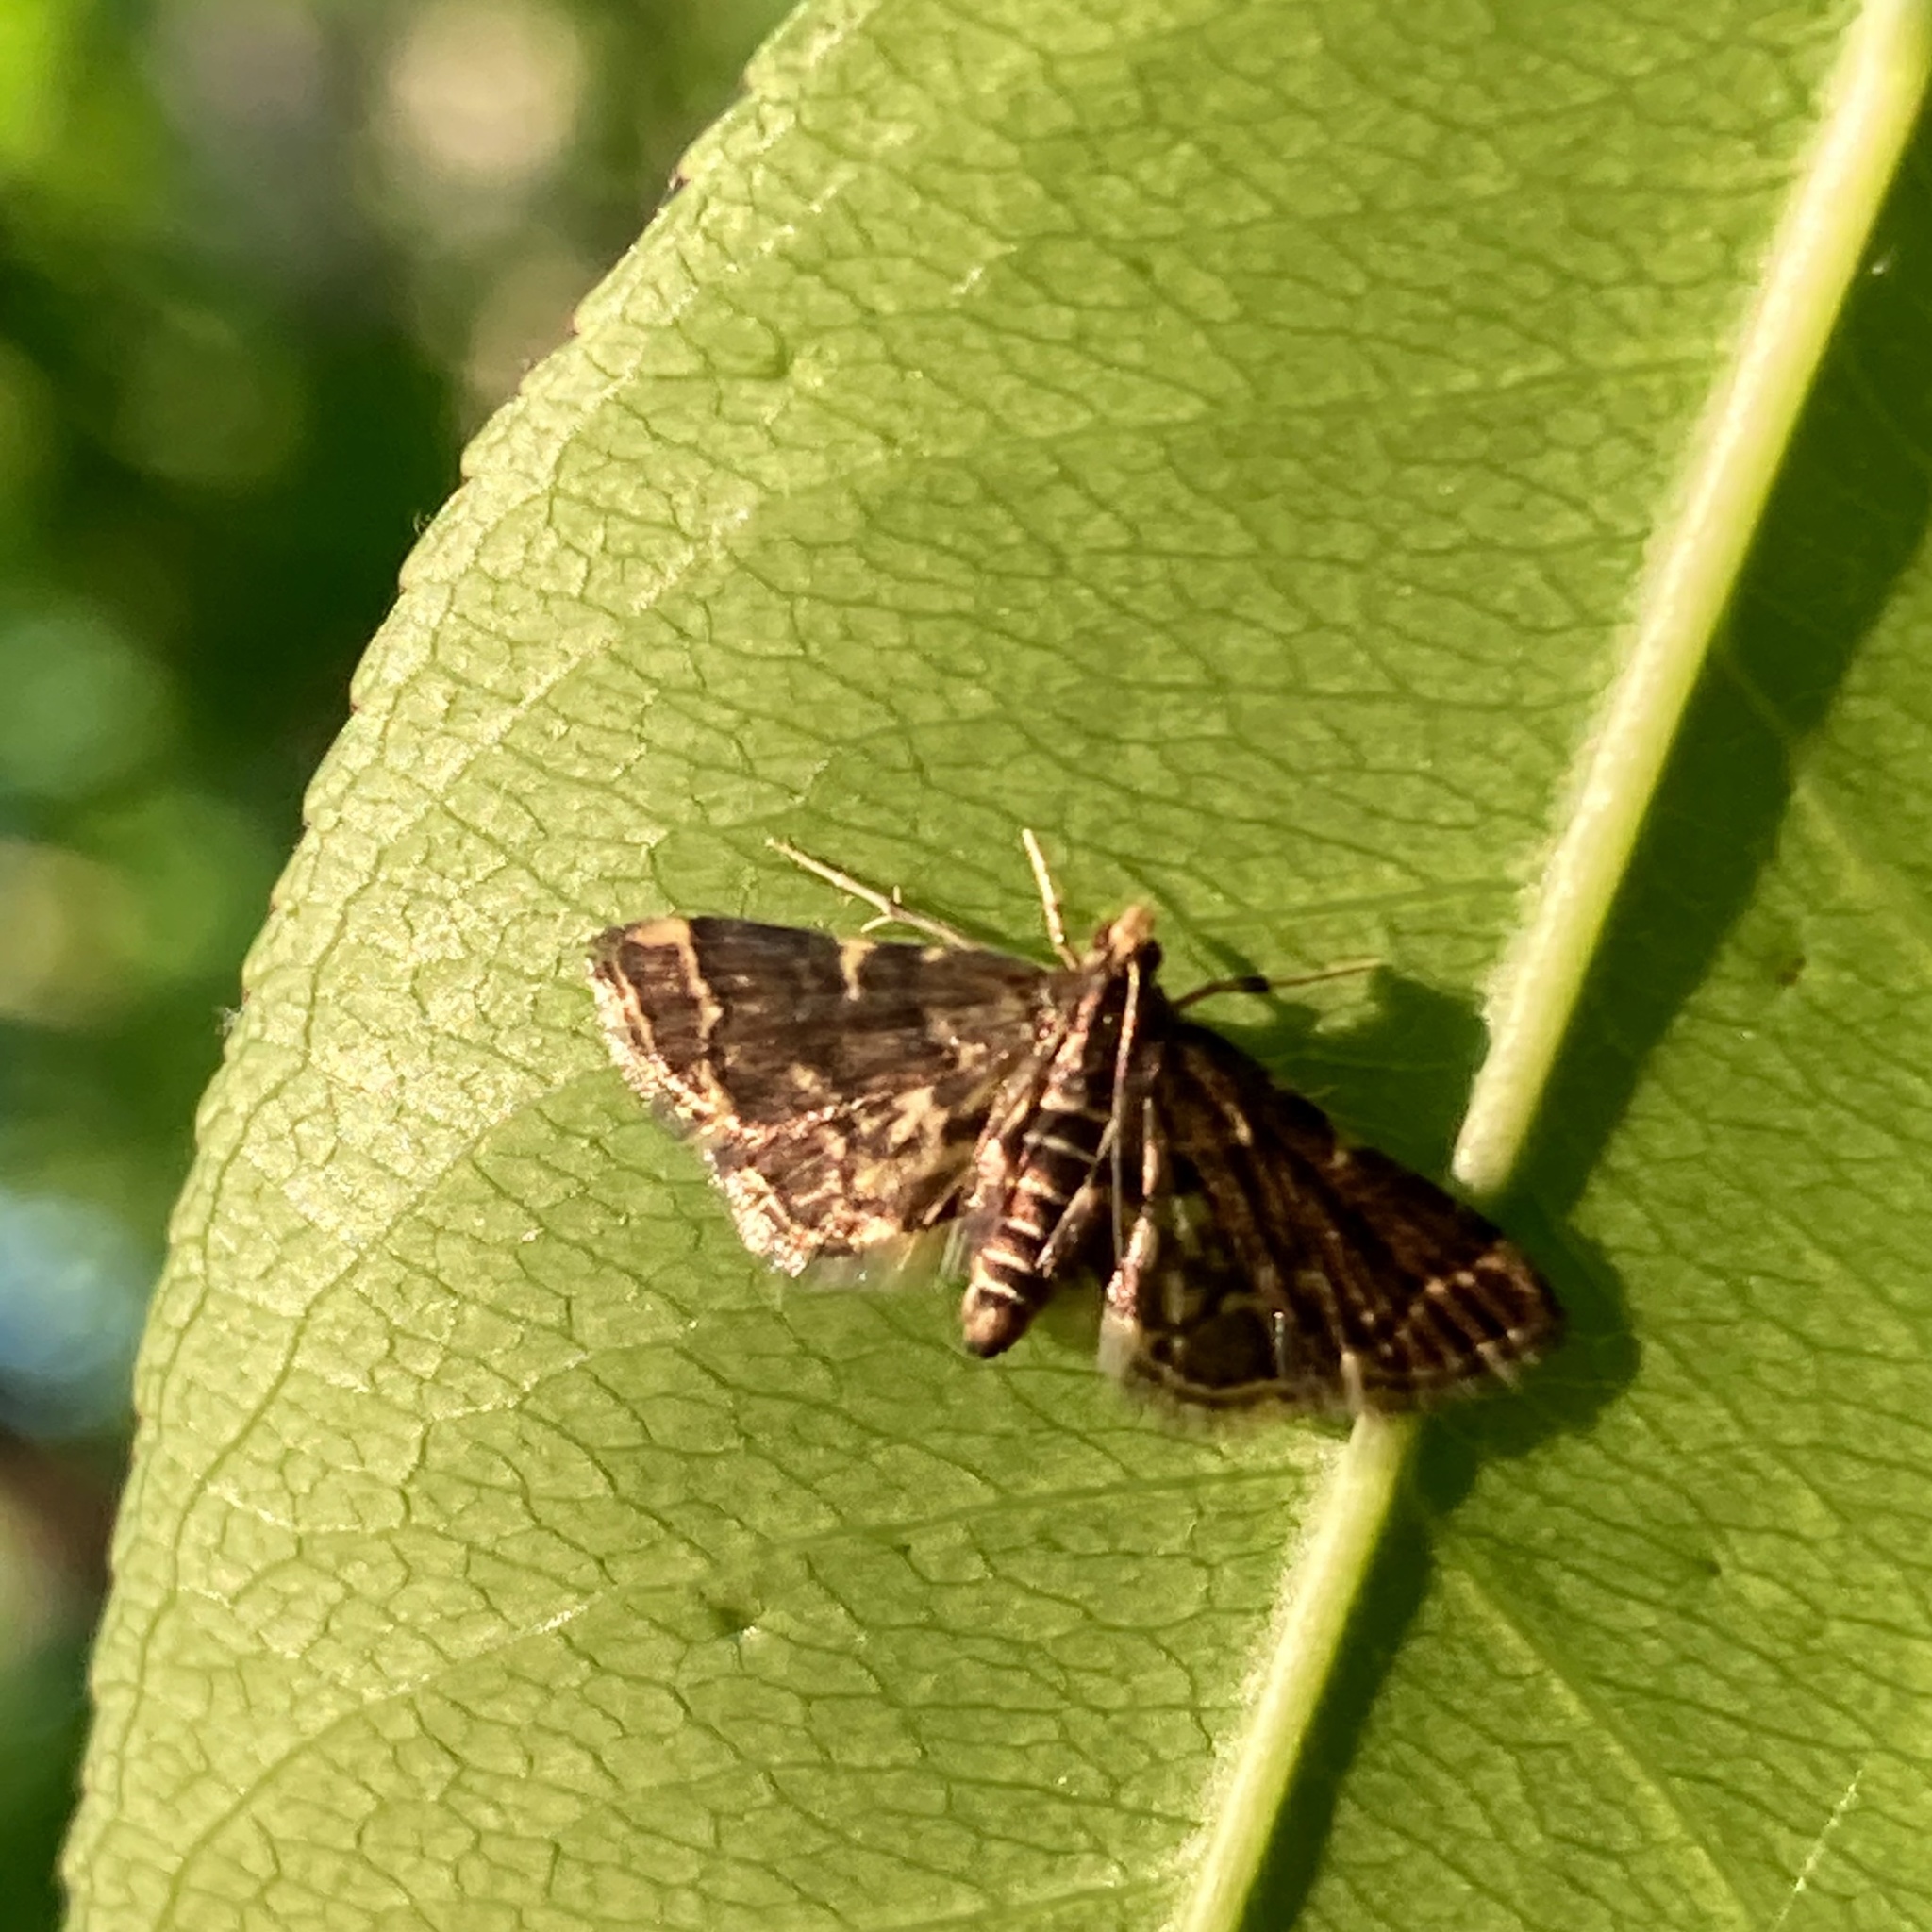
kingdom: Animalia
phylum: Arthropoda
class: Insecta
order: Lepidoptera
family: Crambidae
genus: Anageshna
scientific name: Anageshna primordialis
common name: Yellow-spotted webworm moth
